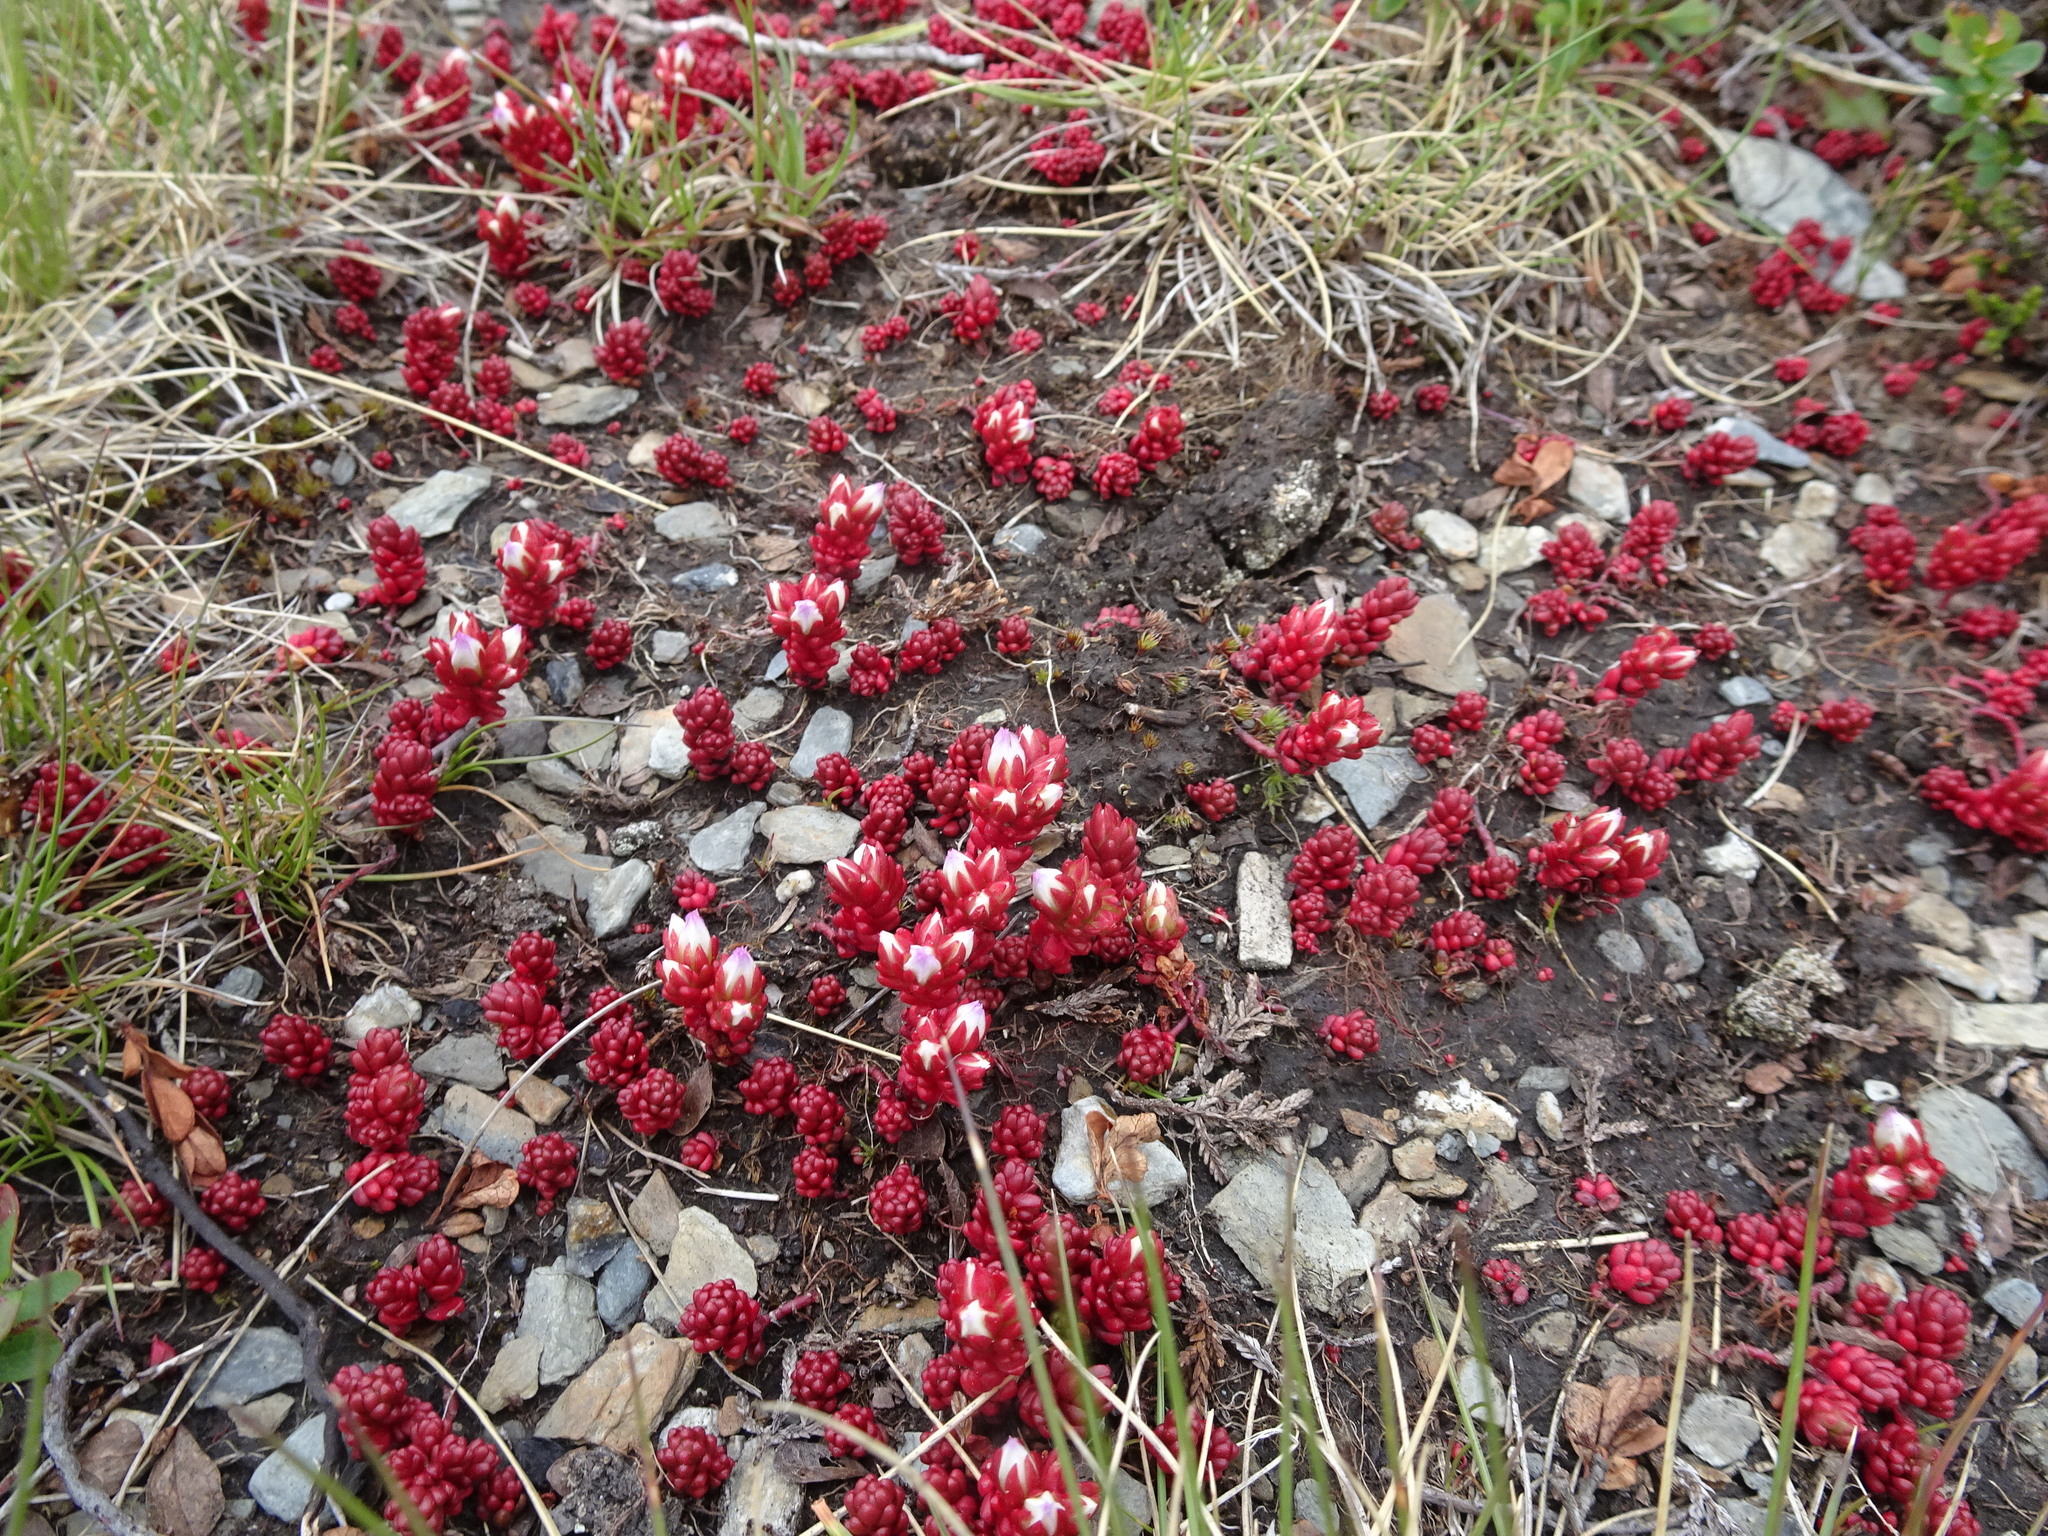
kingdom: Plantae
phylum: Tracheophyta
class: Magnoliopsida
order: Saxifragales
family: Crassulaceae
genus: Sedum
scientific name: Sedum candollei
